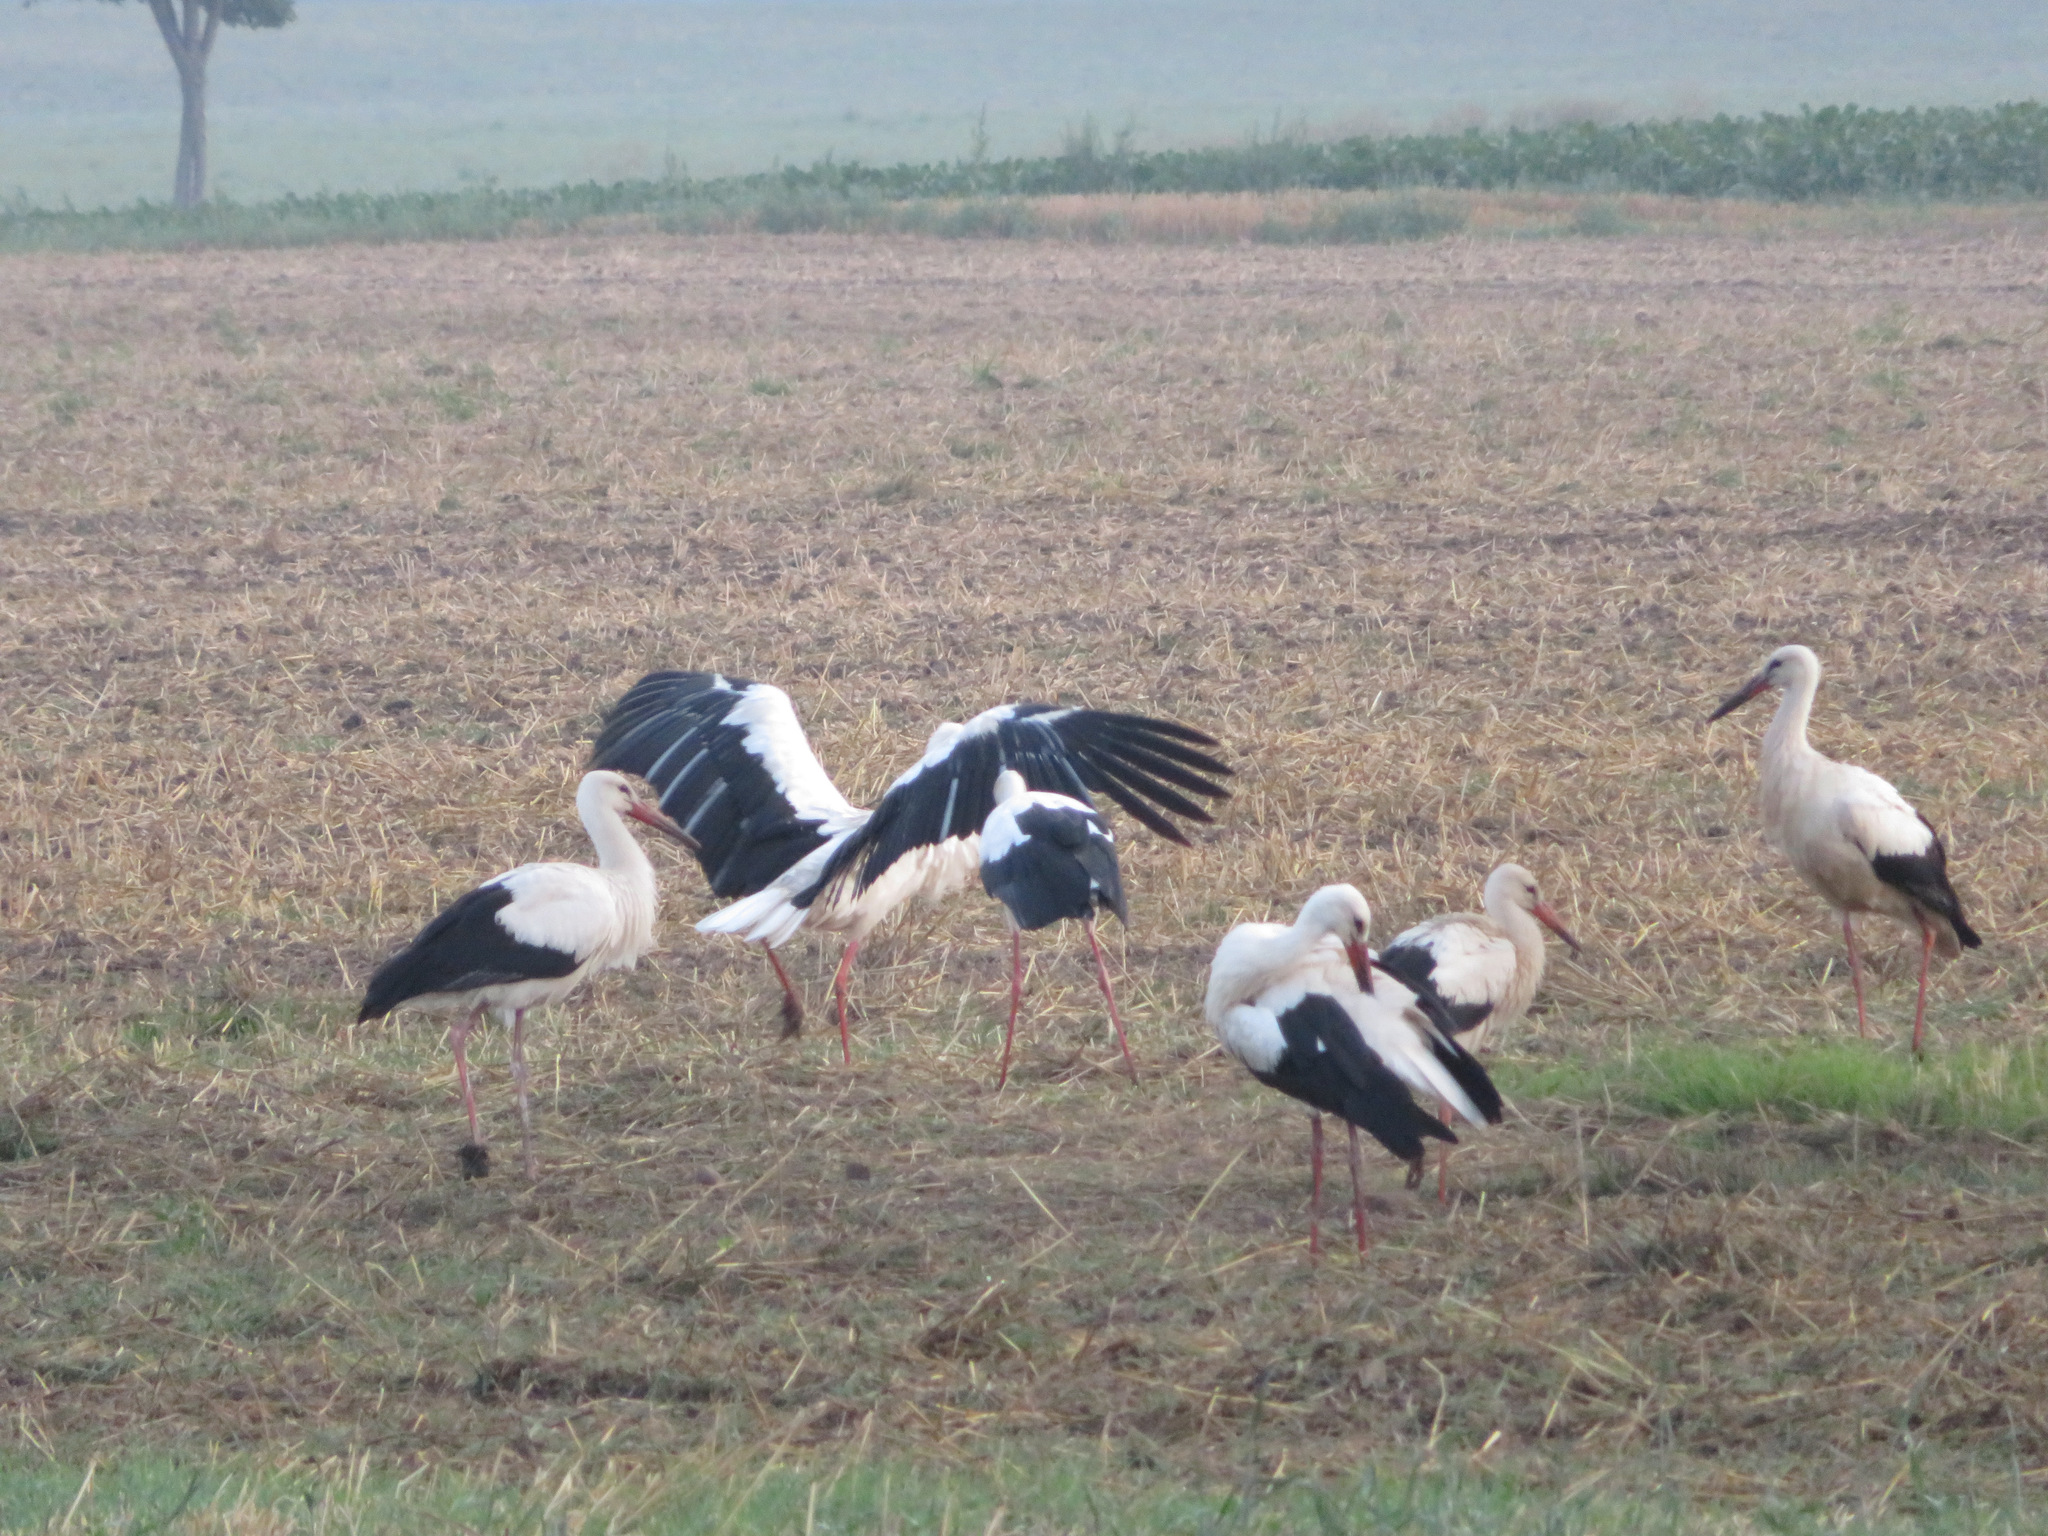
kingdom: Animalia
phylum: Chordata
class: Aves
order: Ciconiiformes
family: Ciconiidae
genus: Ciconia
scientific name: Ciconia ciconia
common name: White stork
